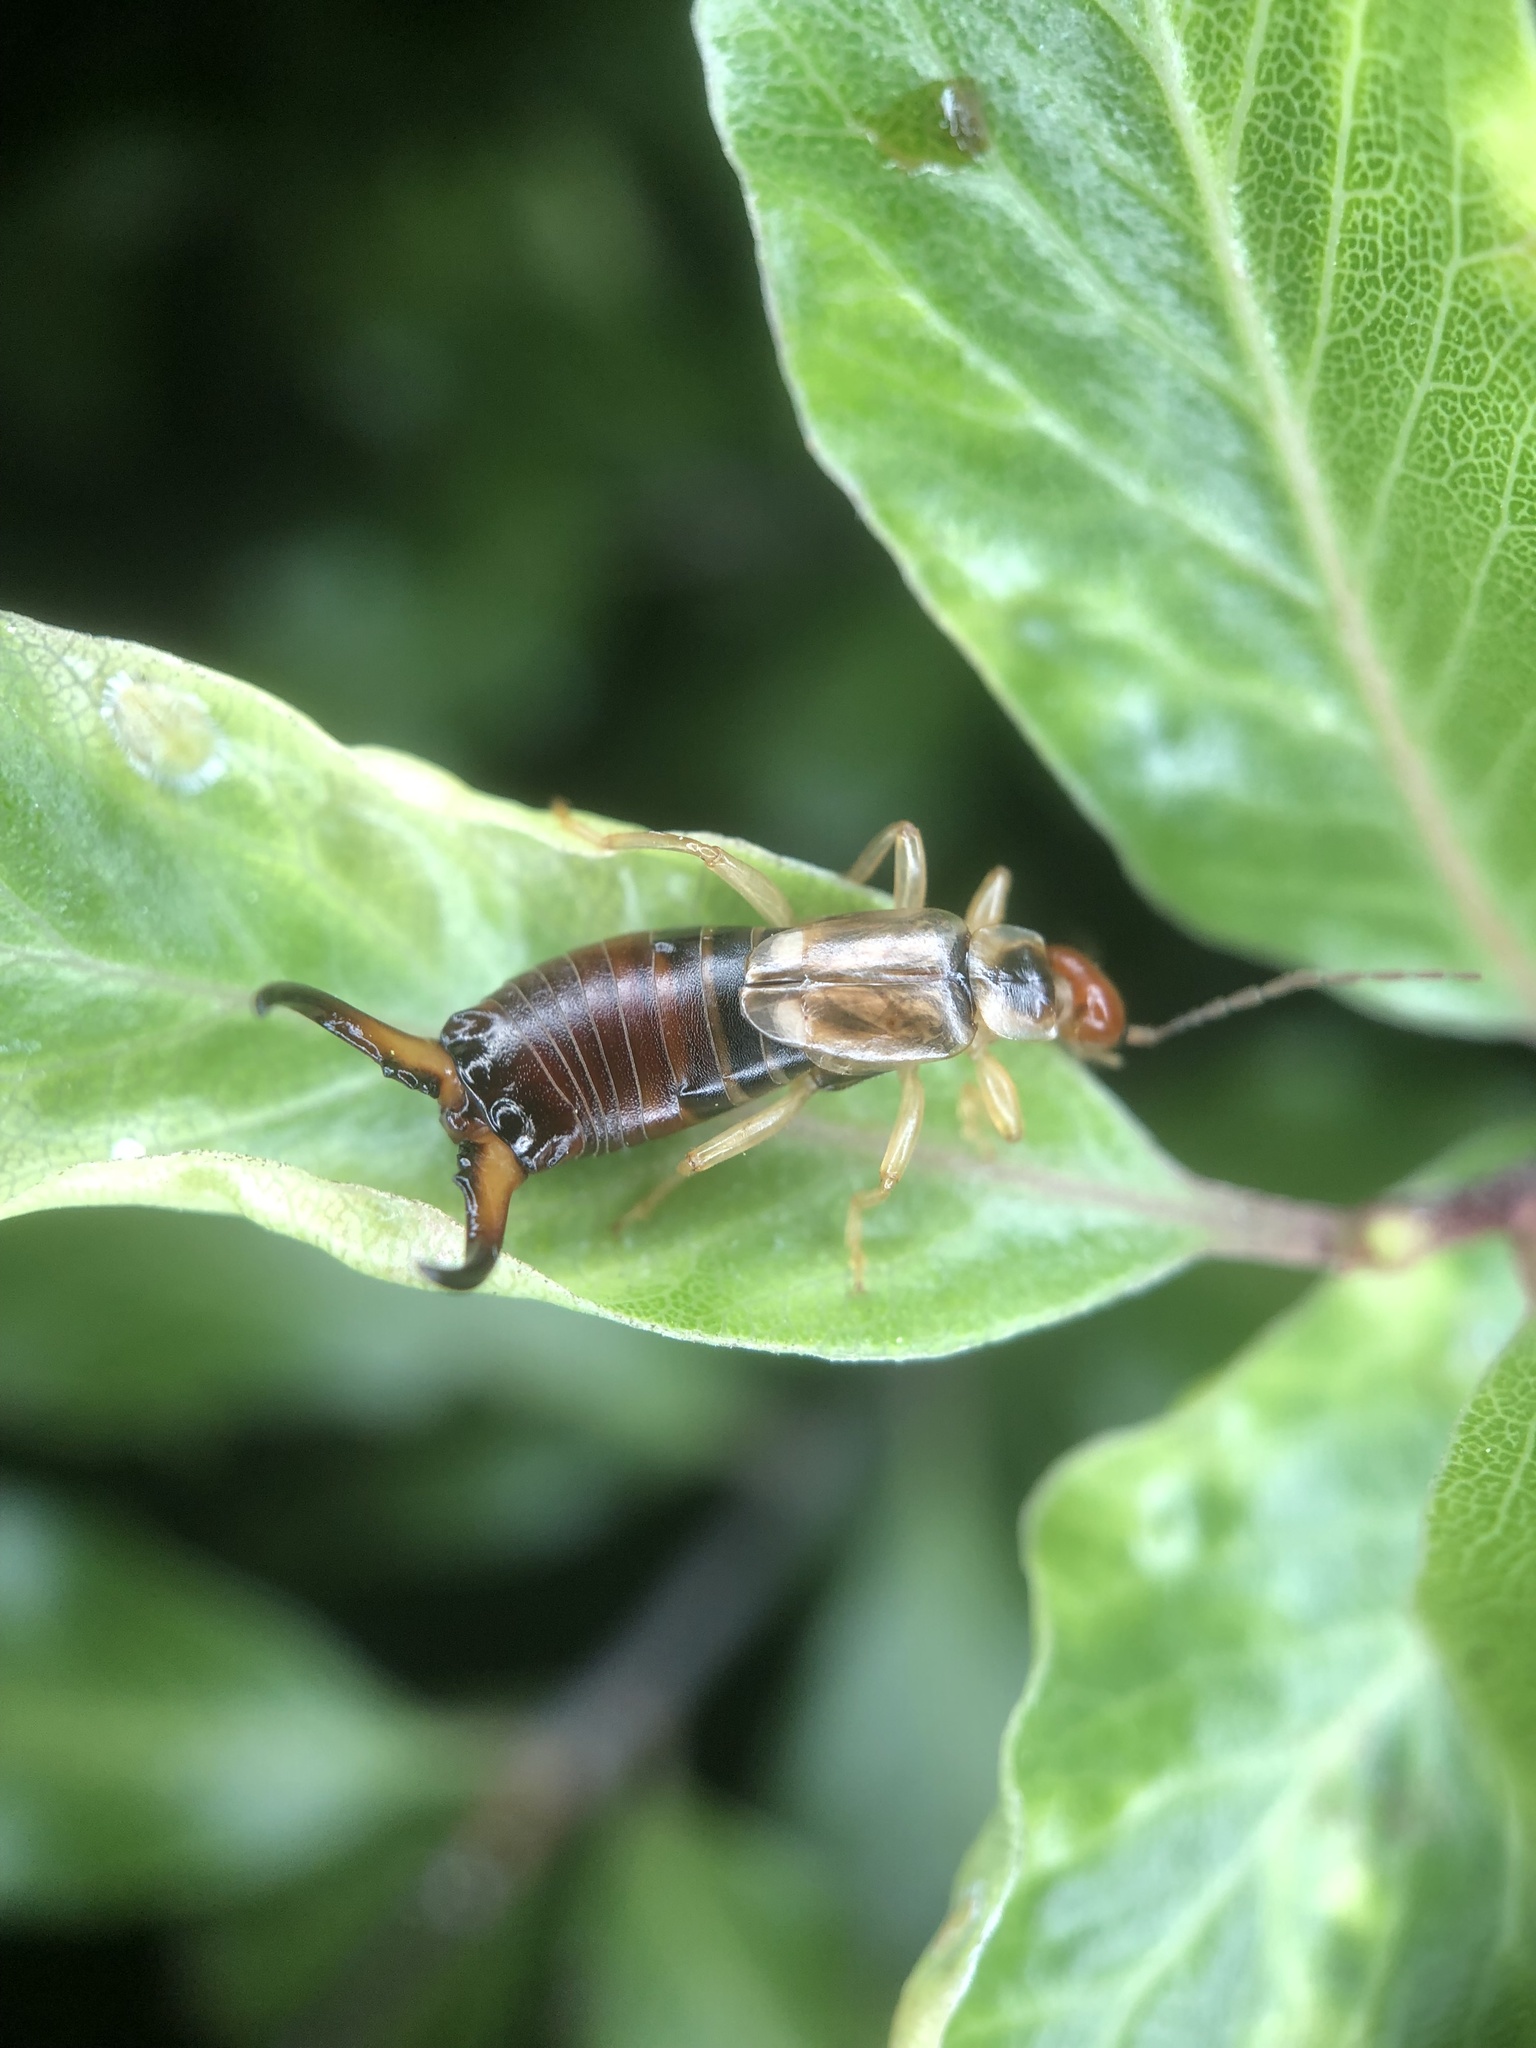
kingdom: Animalia
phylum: Arthropoda
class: Insecta
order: Dermaptera
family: Forficulidae
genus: Forficula
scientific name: Forficula
